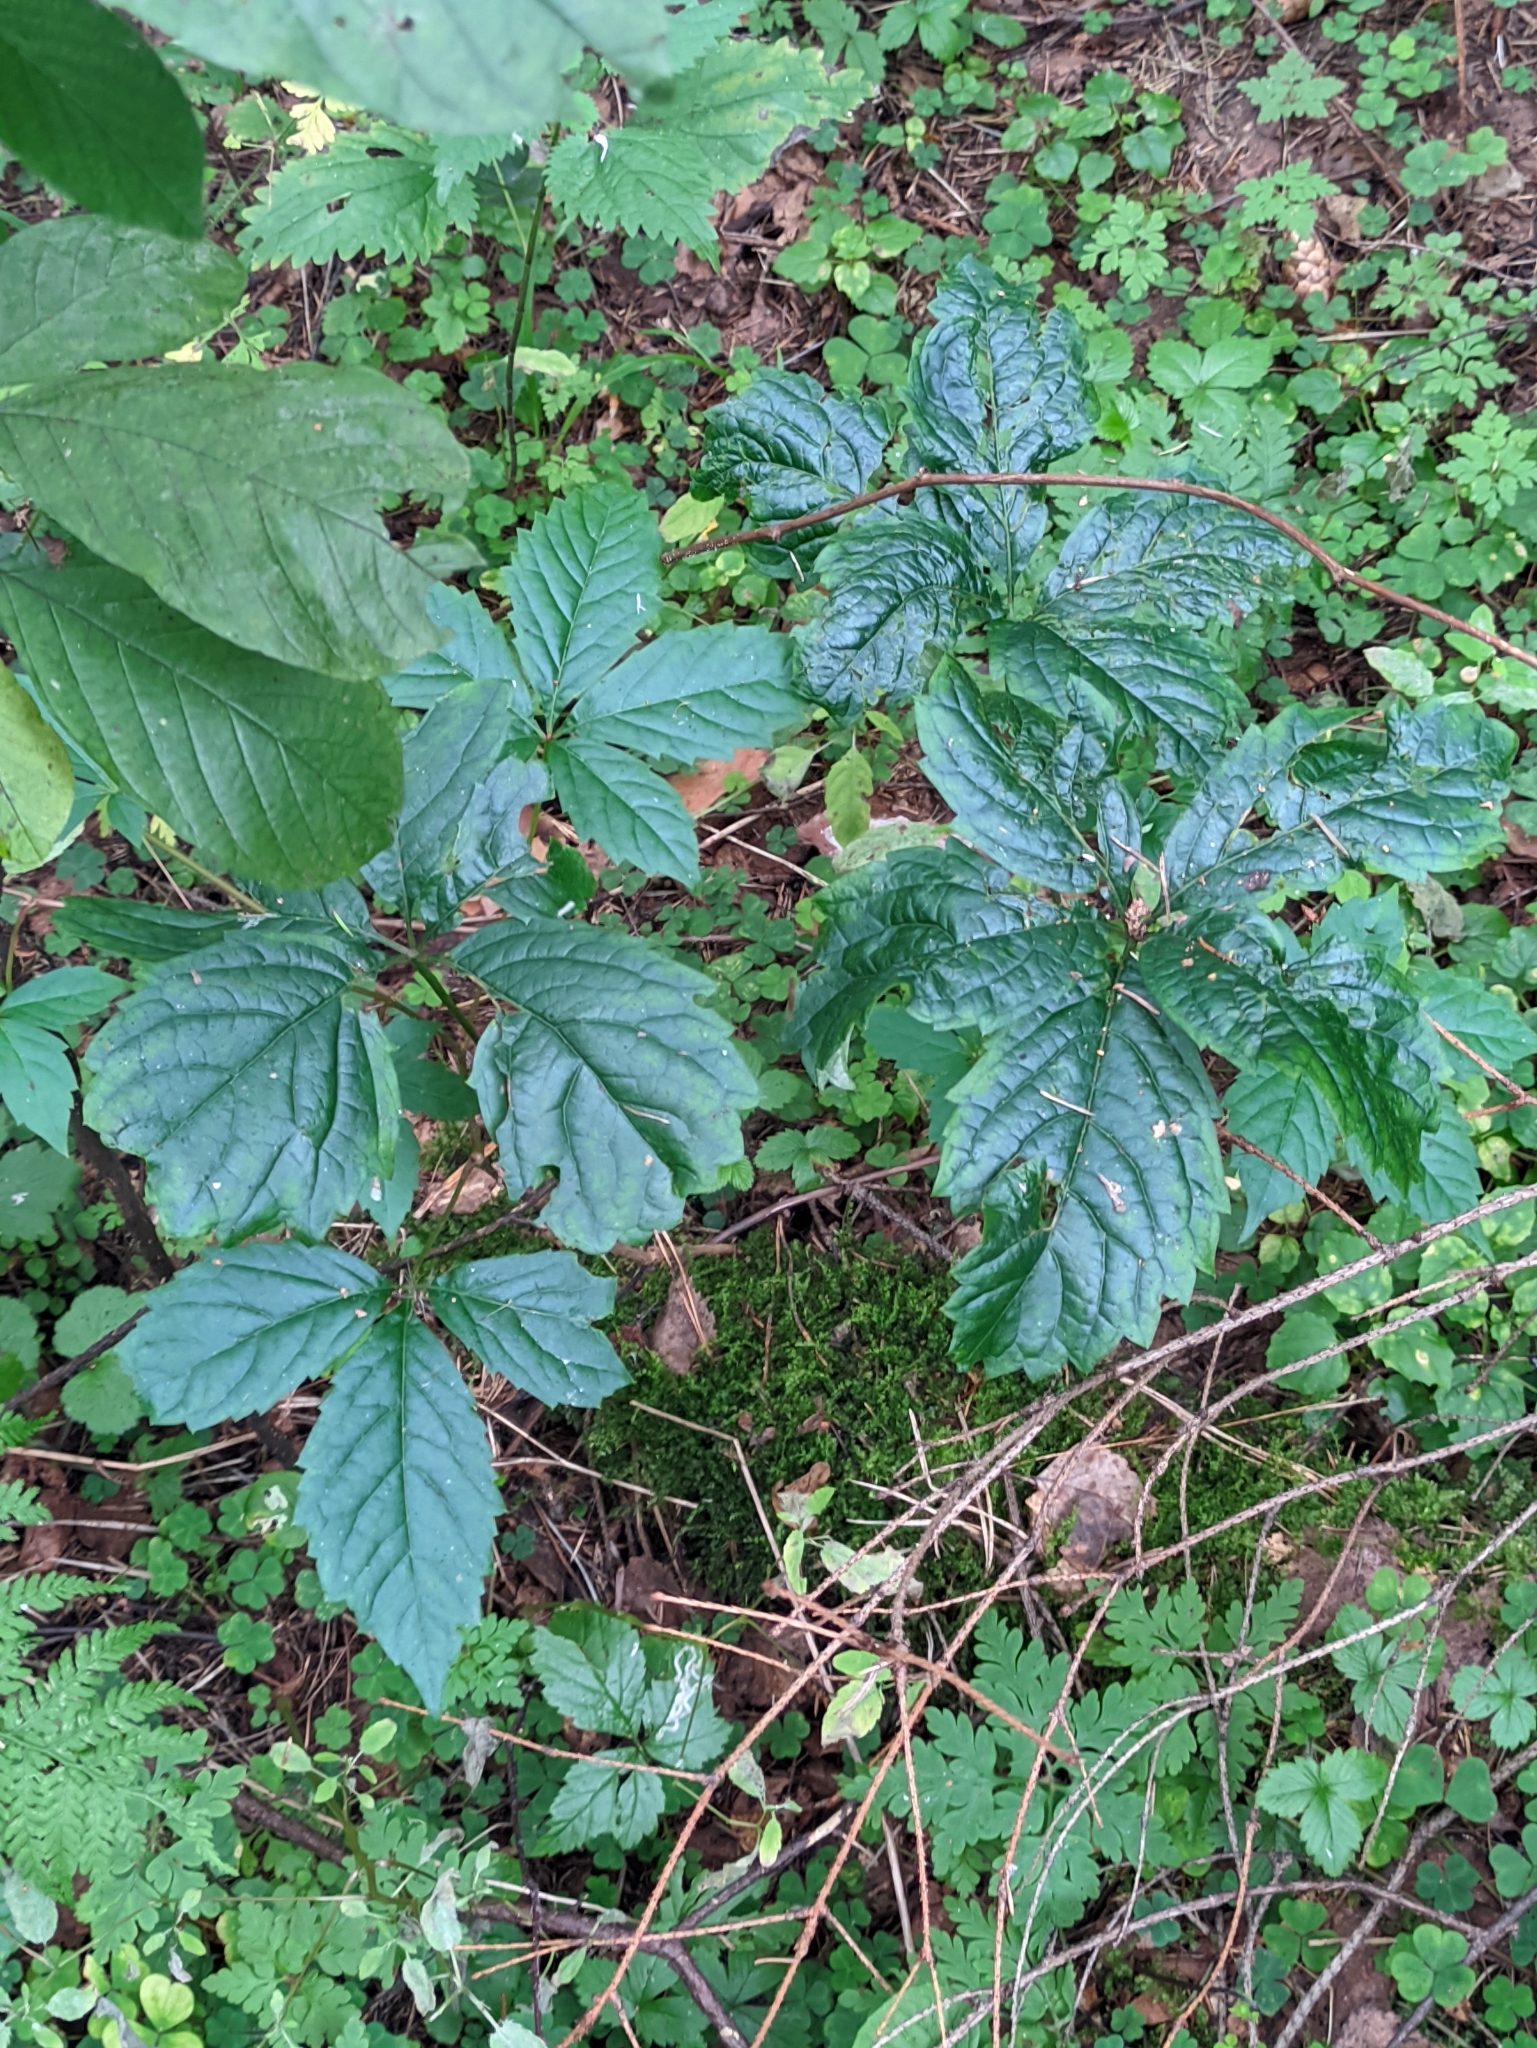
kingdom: Plantae
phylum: Tracheophyta
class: Magnoliopsida
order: Vitales
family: Vitaceae
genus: Parthenocissus
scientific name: Parthenocissus inserta
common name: False virginia-creeper
